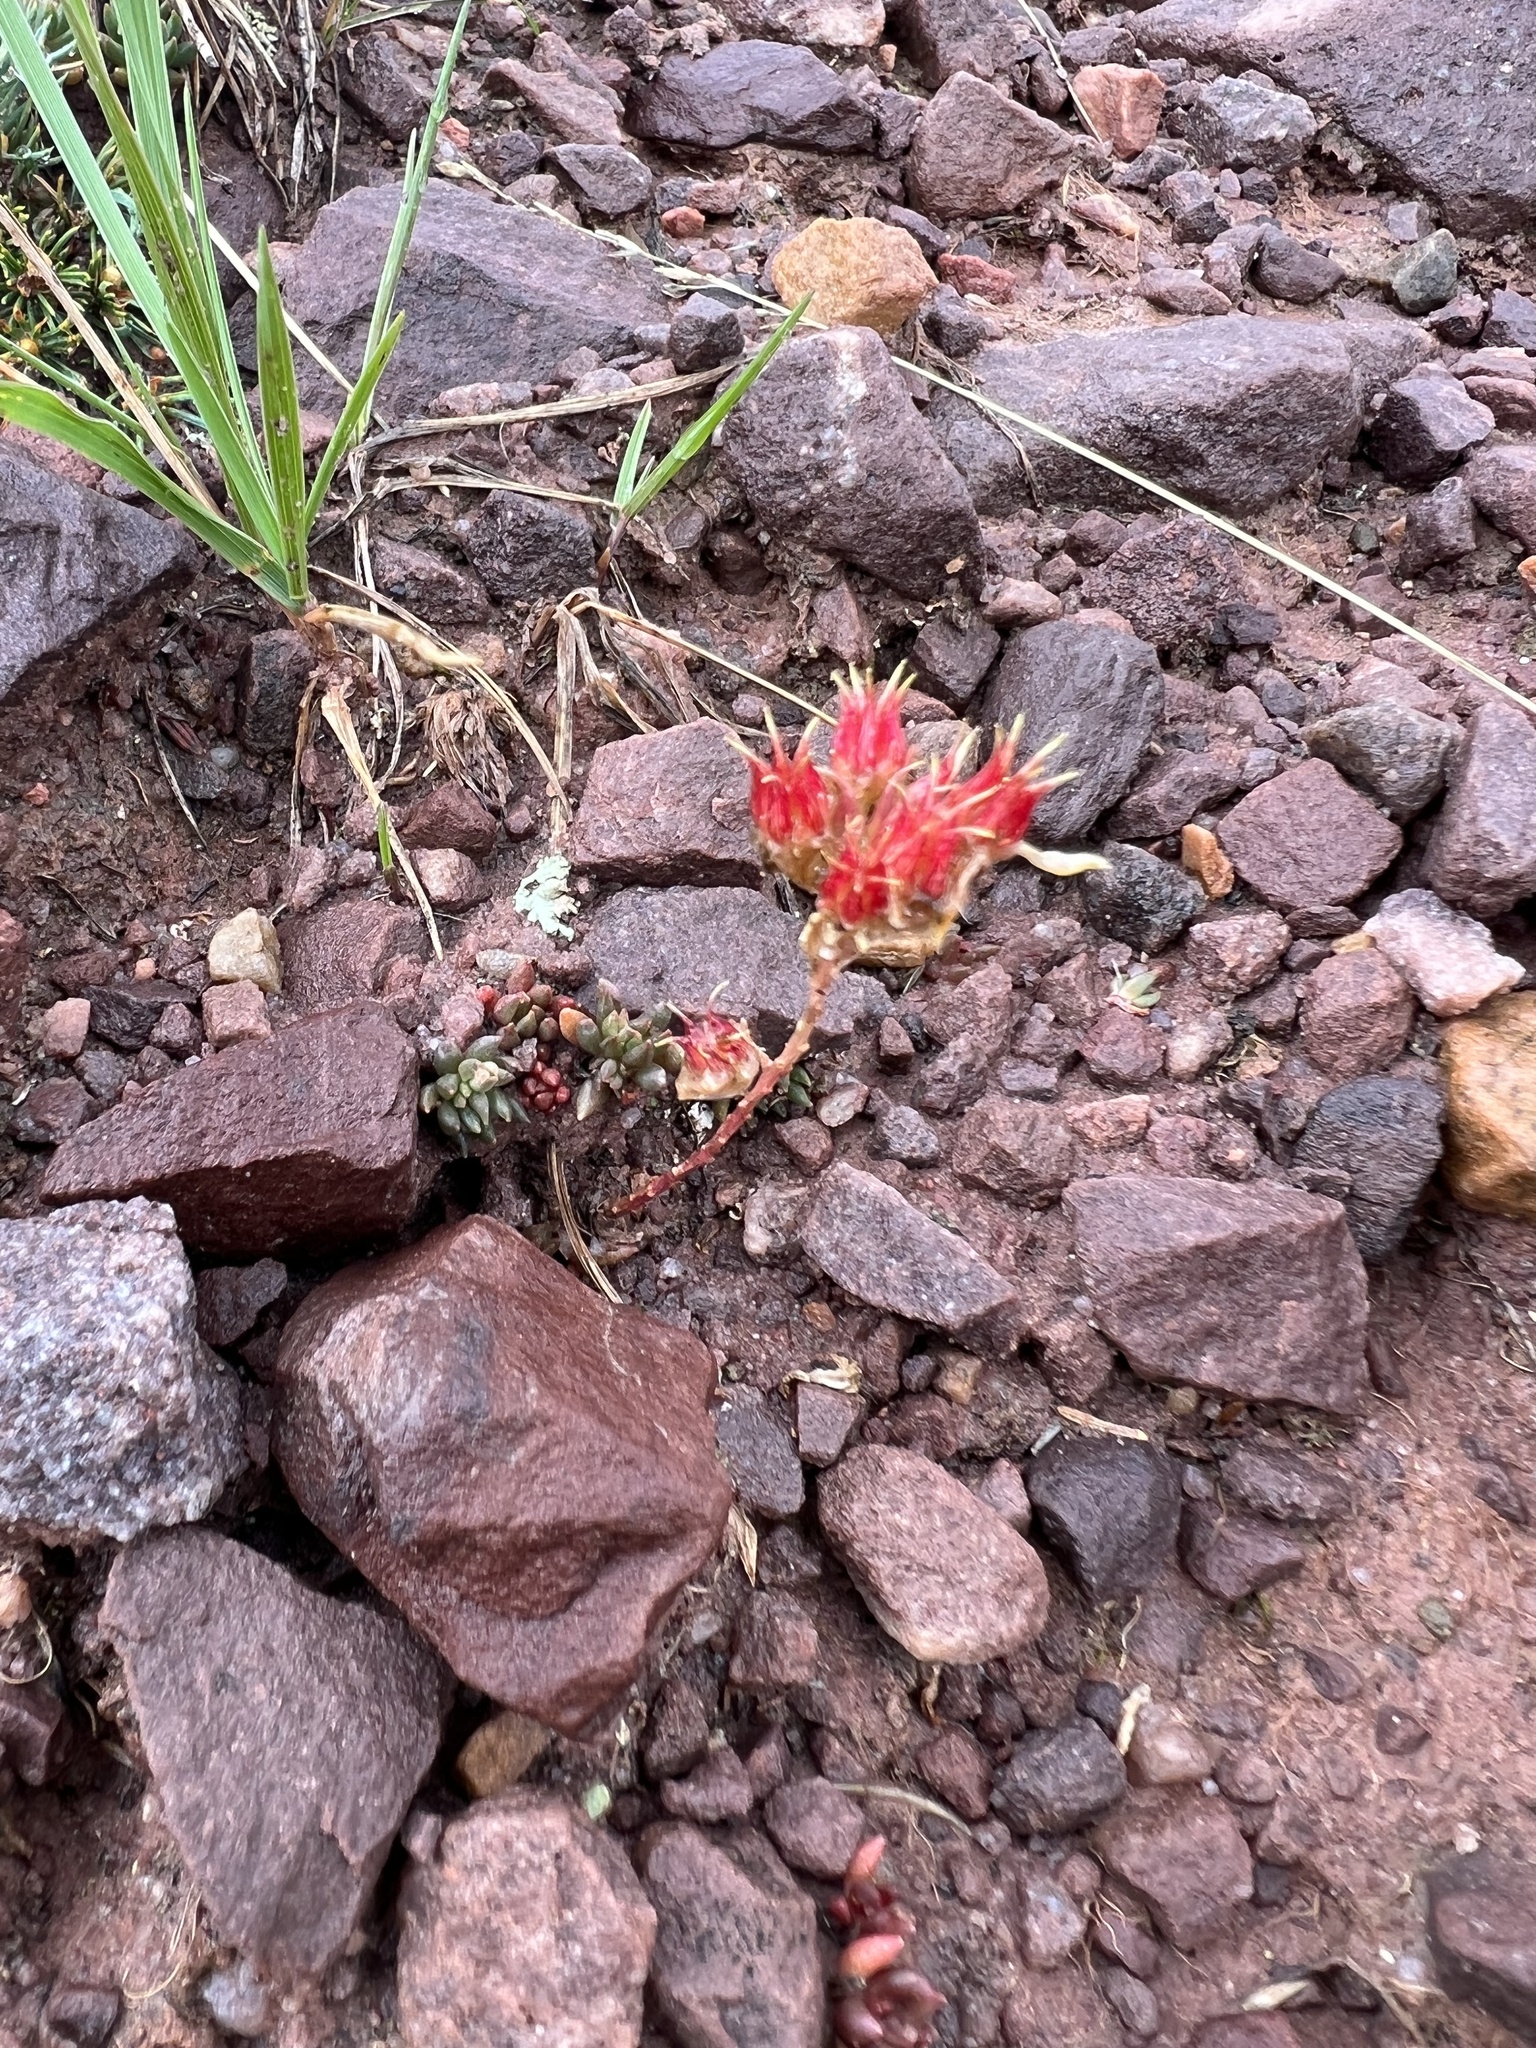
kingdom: Plantae
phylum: Tracheophyta
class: Magnoliopsida
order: Saxifragales
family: Crassulaceae
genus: Sedum
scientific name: Sedum lanceolatum
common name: Common stonecrop
